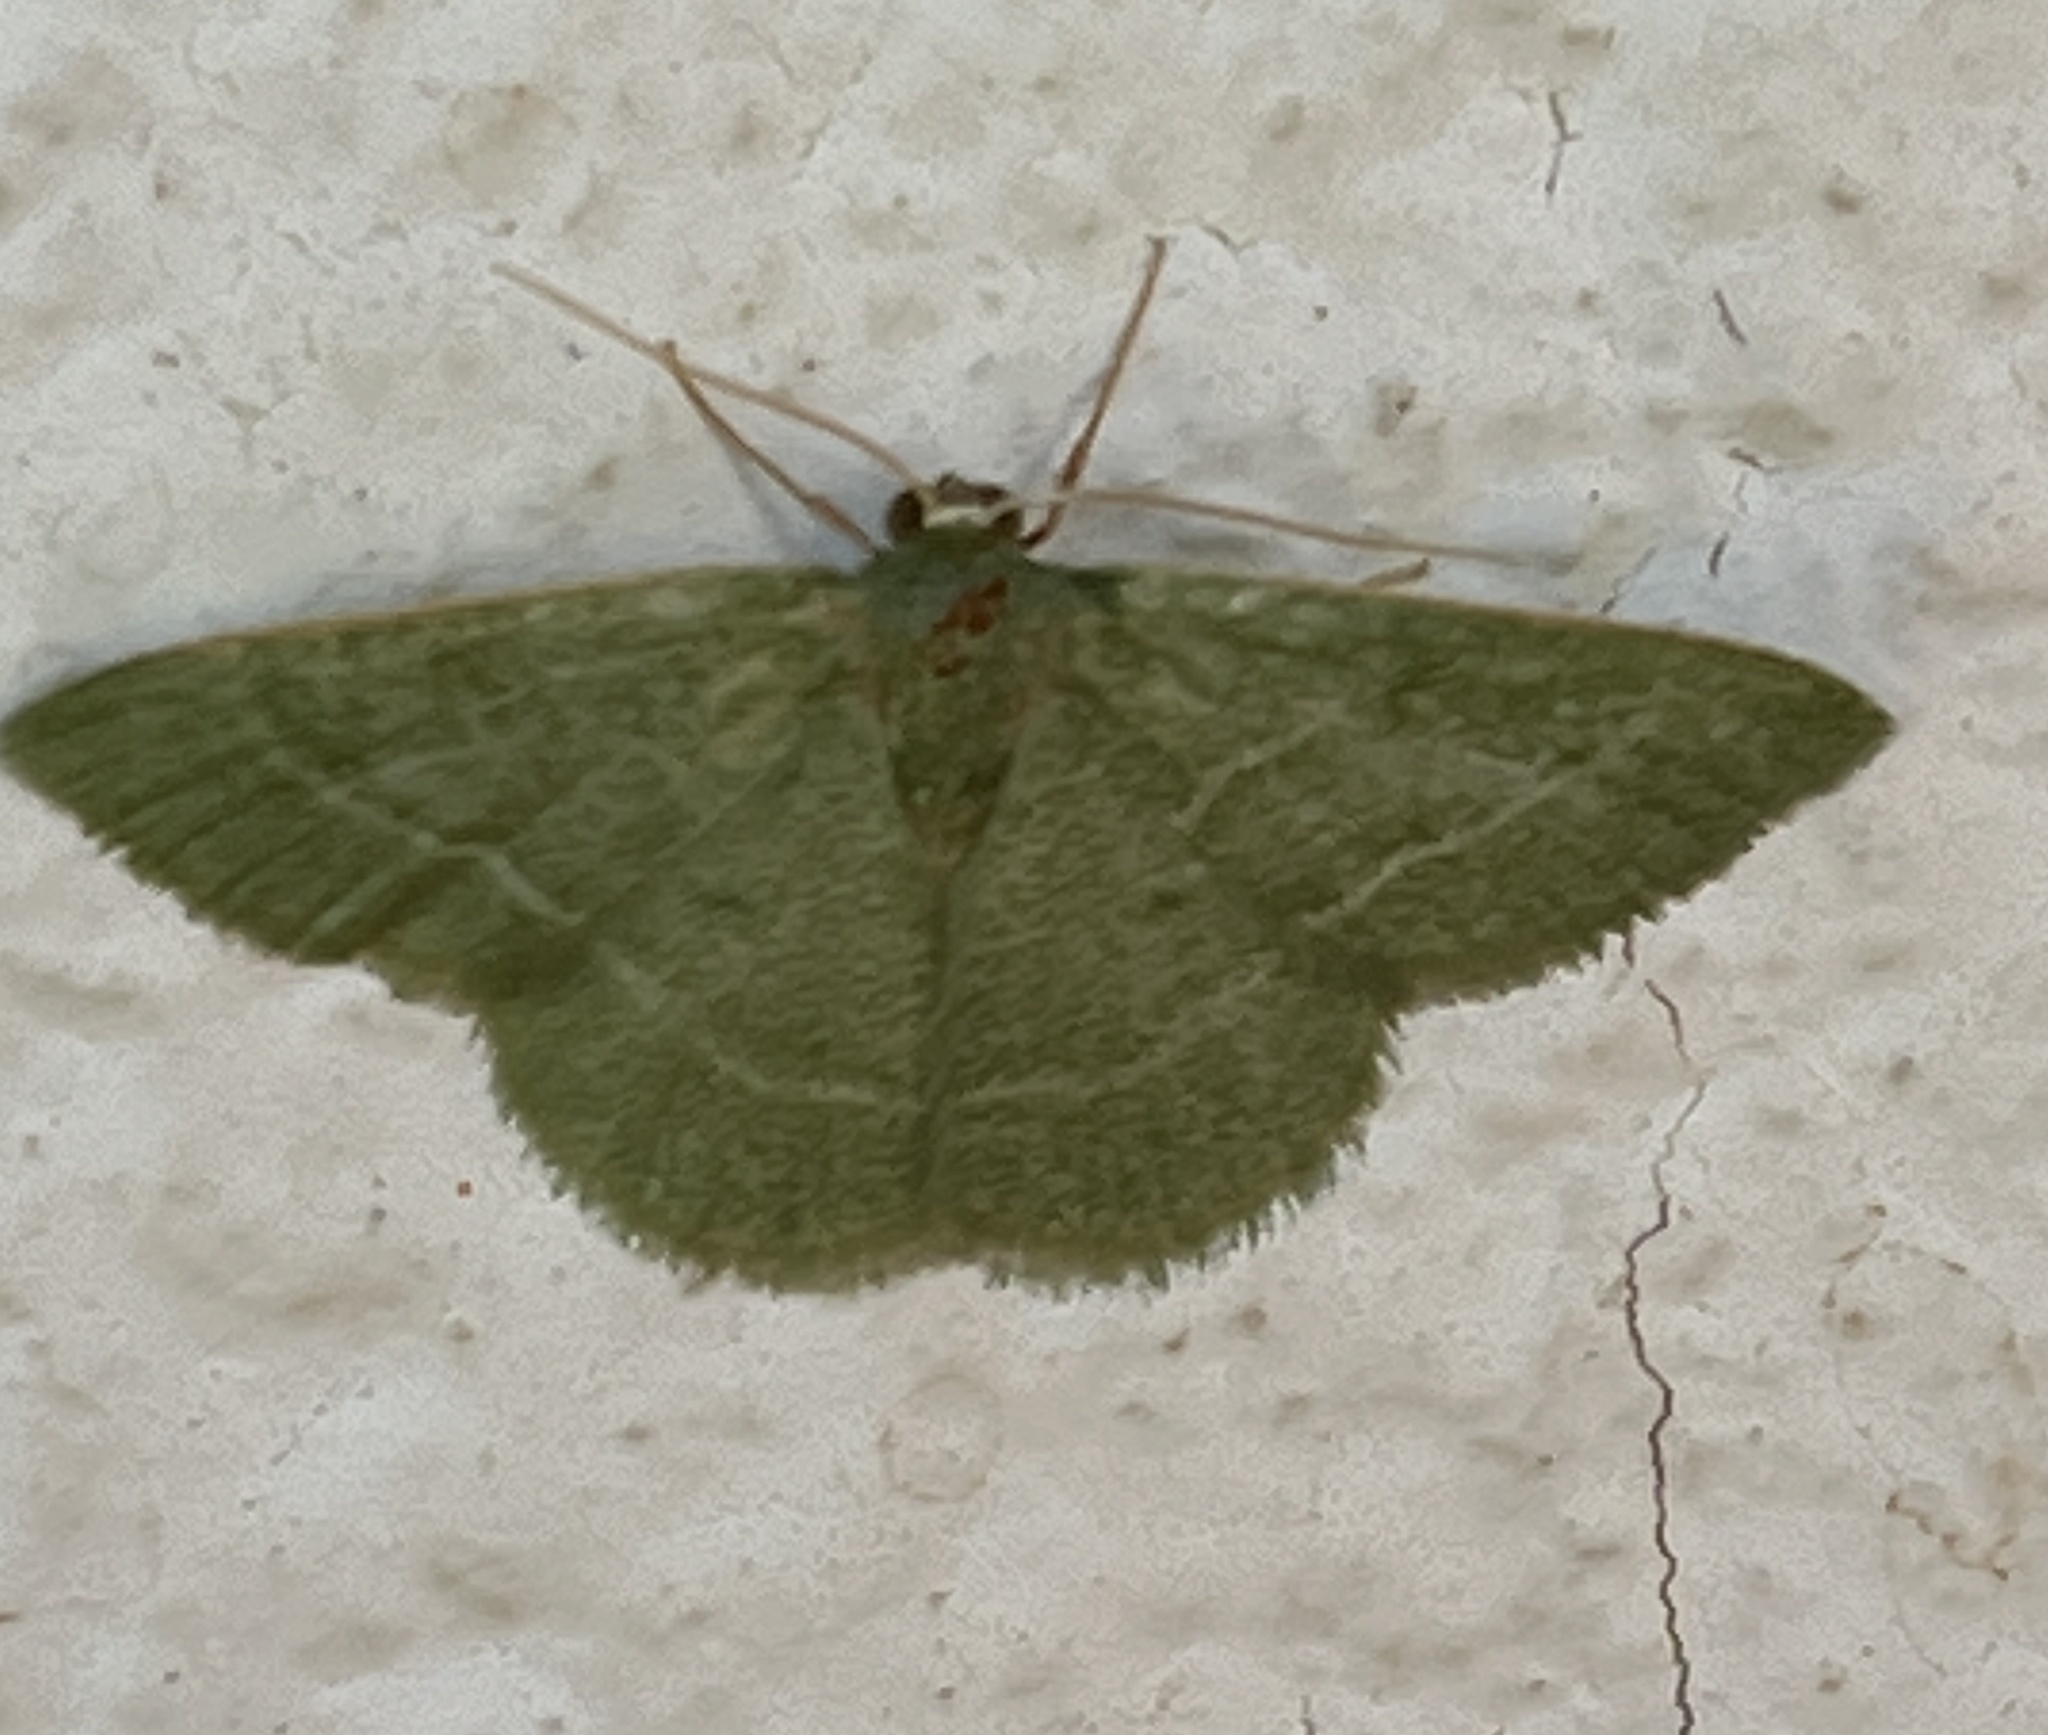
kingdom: Animalia
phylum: Arthropoda
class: Insecta
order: Lepidoptera
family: Geometridae
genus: Chlorissa
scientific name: Chlorissa attenuata
